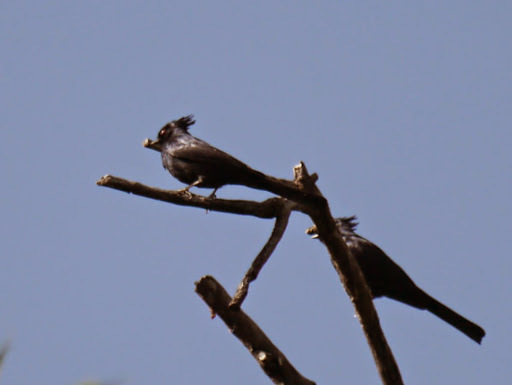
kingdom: Animalia
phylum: Chordata
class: Aves
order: Passeriformes
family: Ptilogonatidae
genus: Phainopepla
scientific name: Phainopepla nitens
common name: Phainopepla
